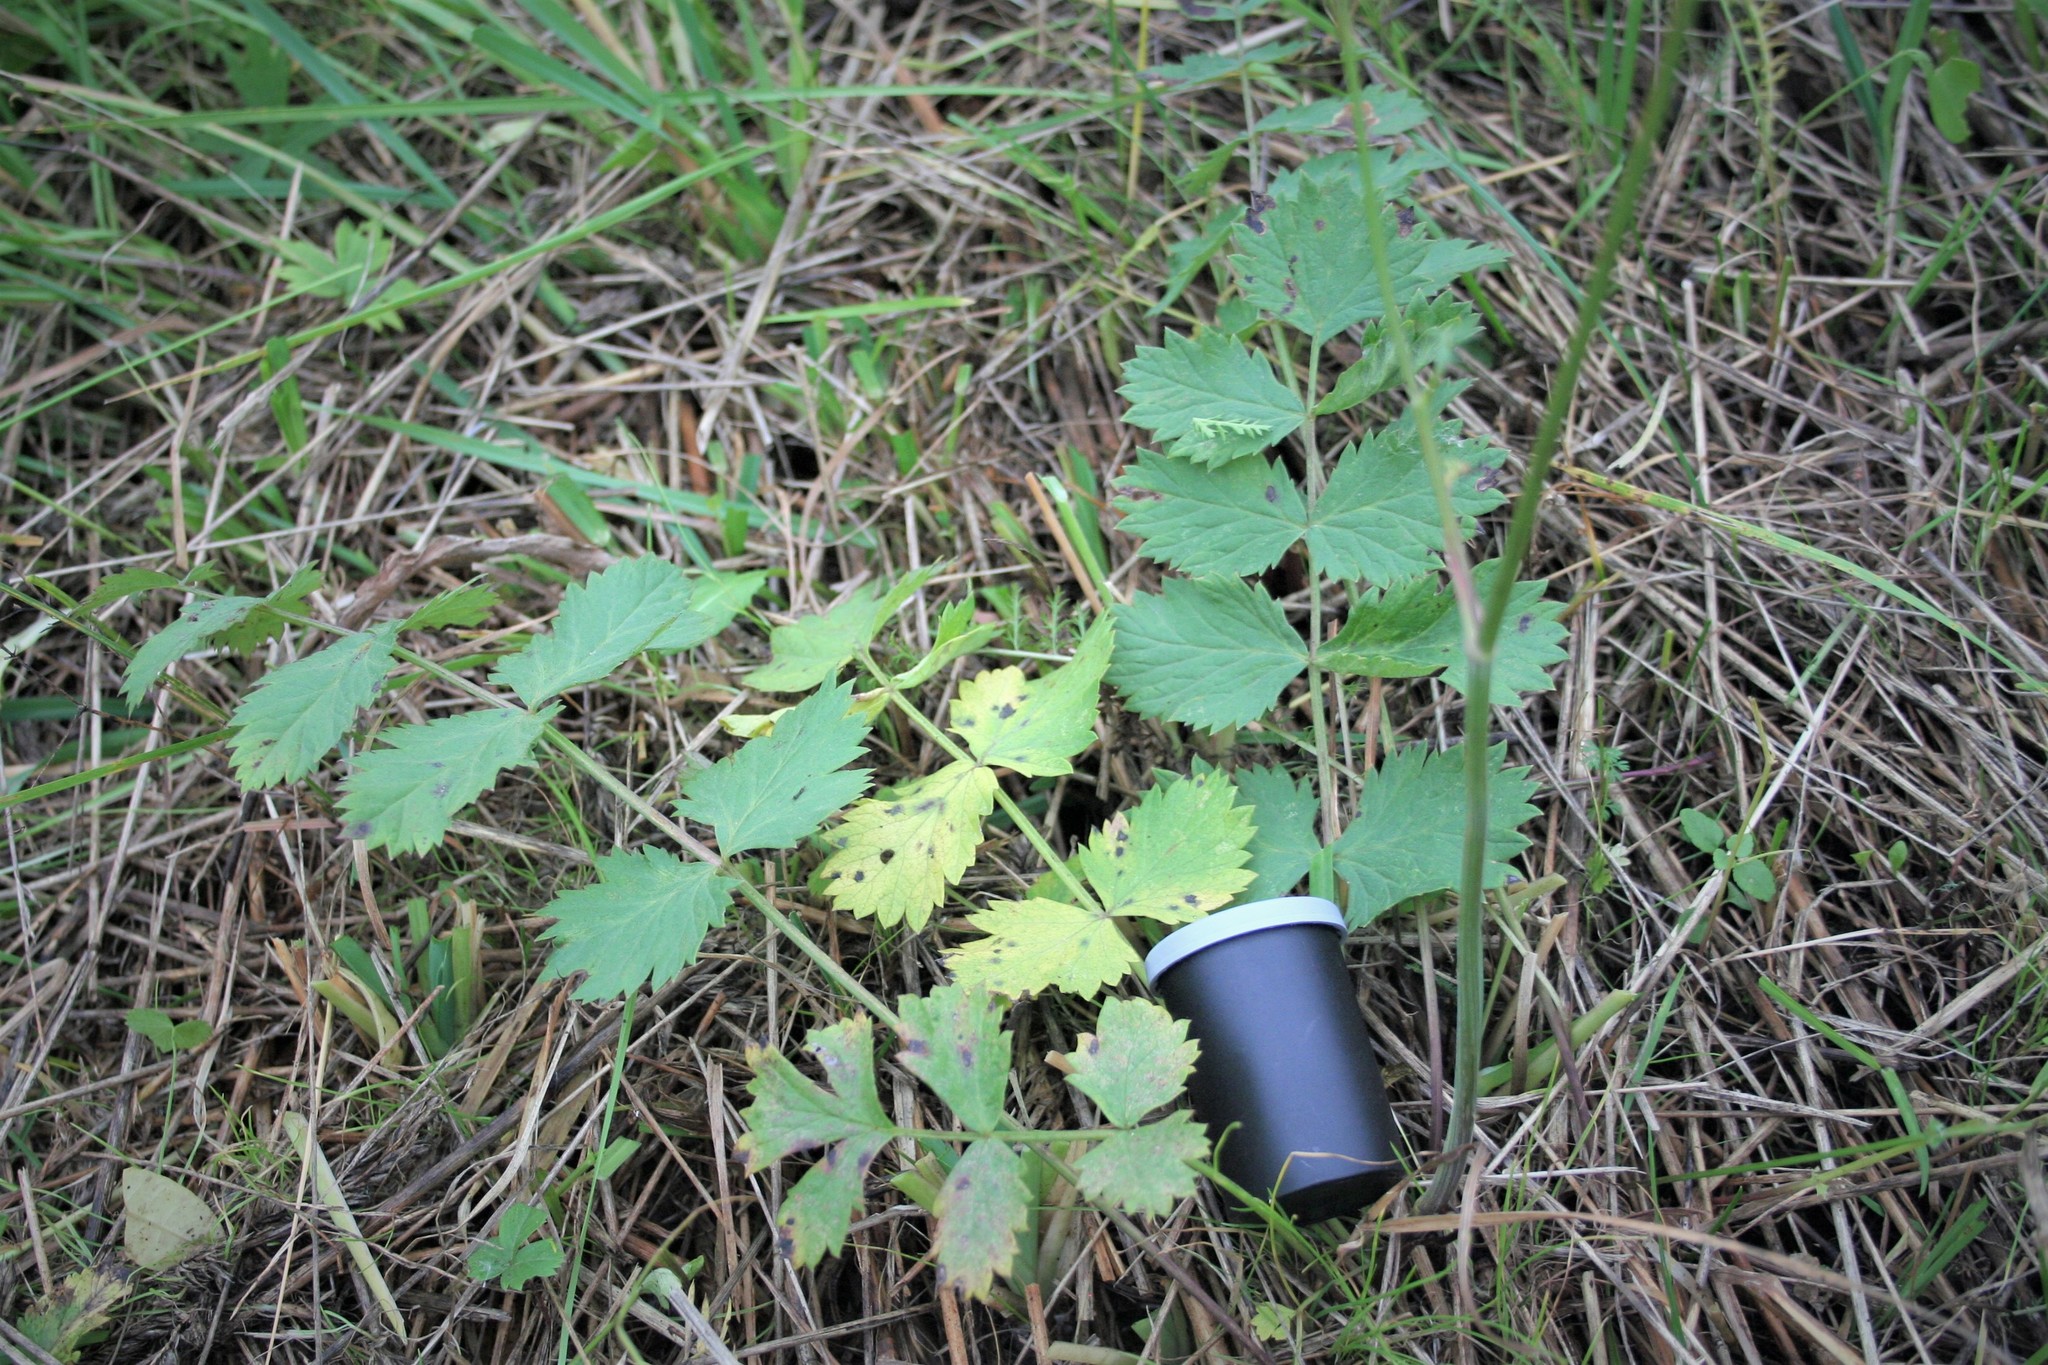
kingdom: Plantae
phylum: Tracheophyta
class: Magnoliopsida
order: Apiales
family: Apiaceae
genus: Pimpinella
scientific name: Pimpinella saxifraga
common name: Burnet-saxifrage
